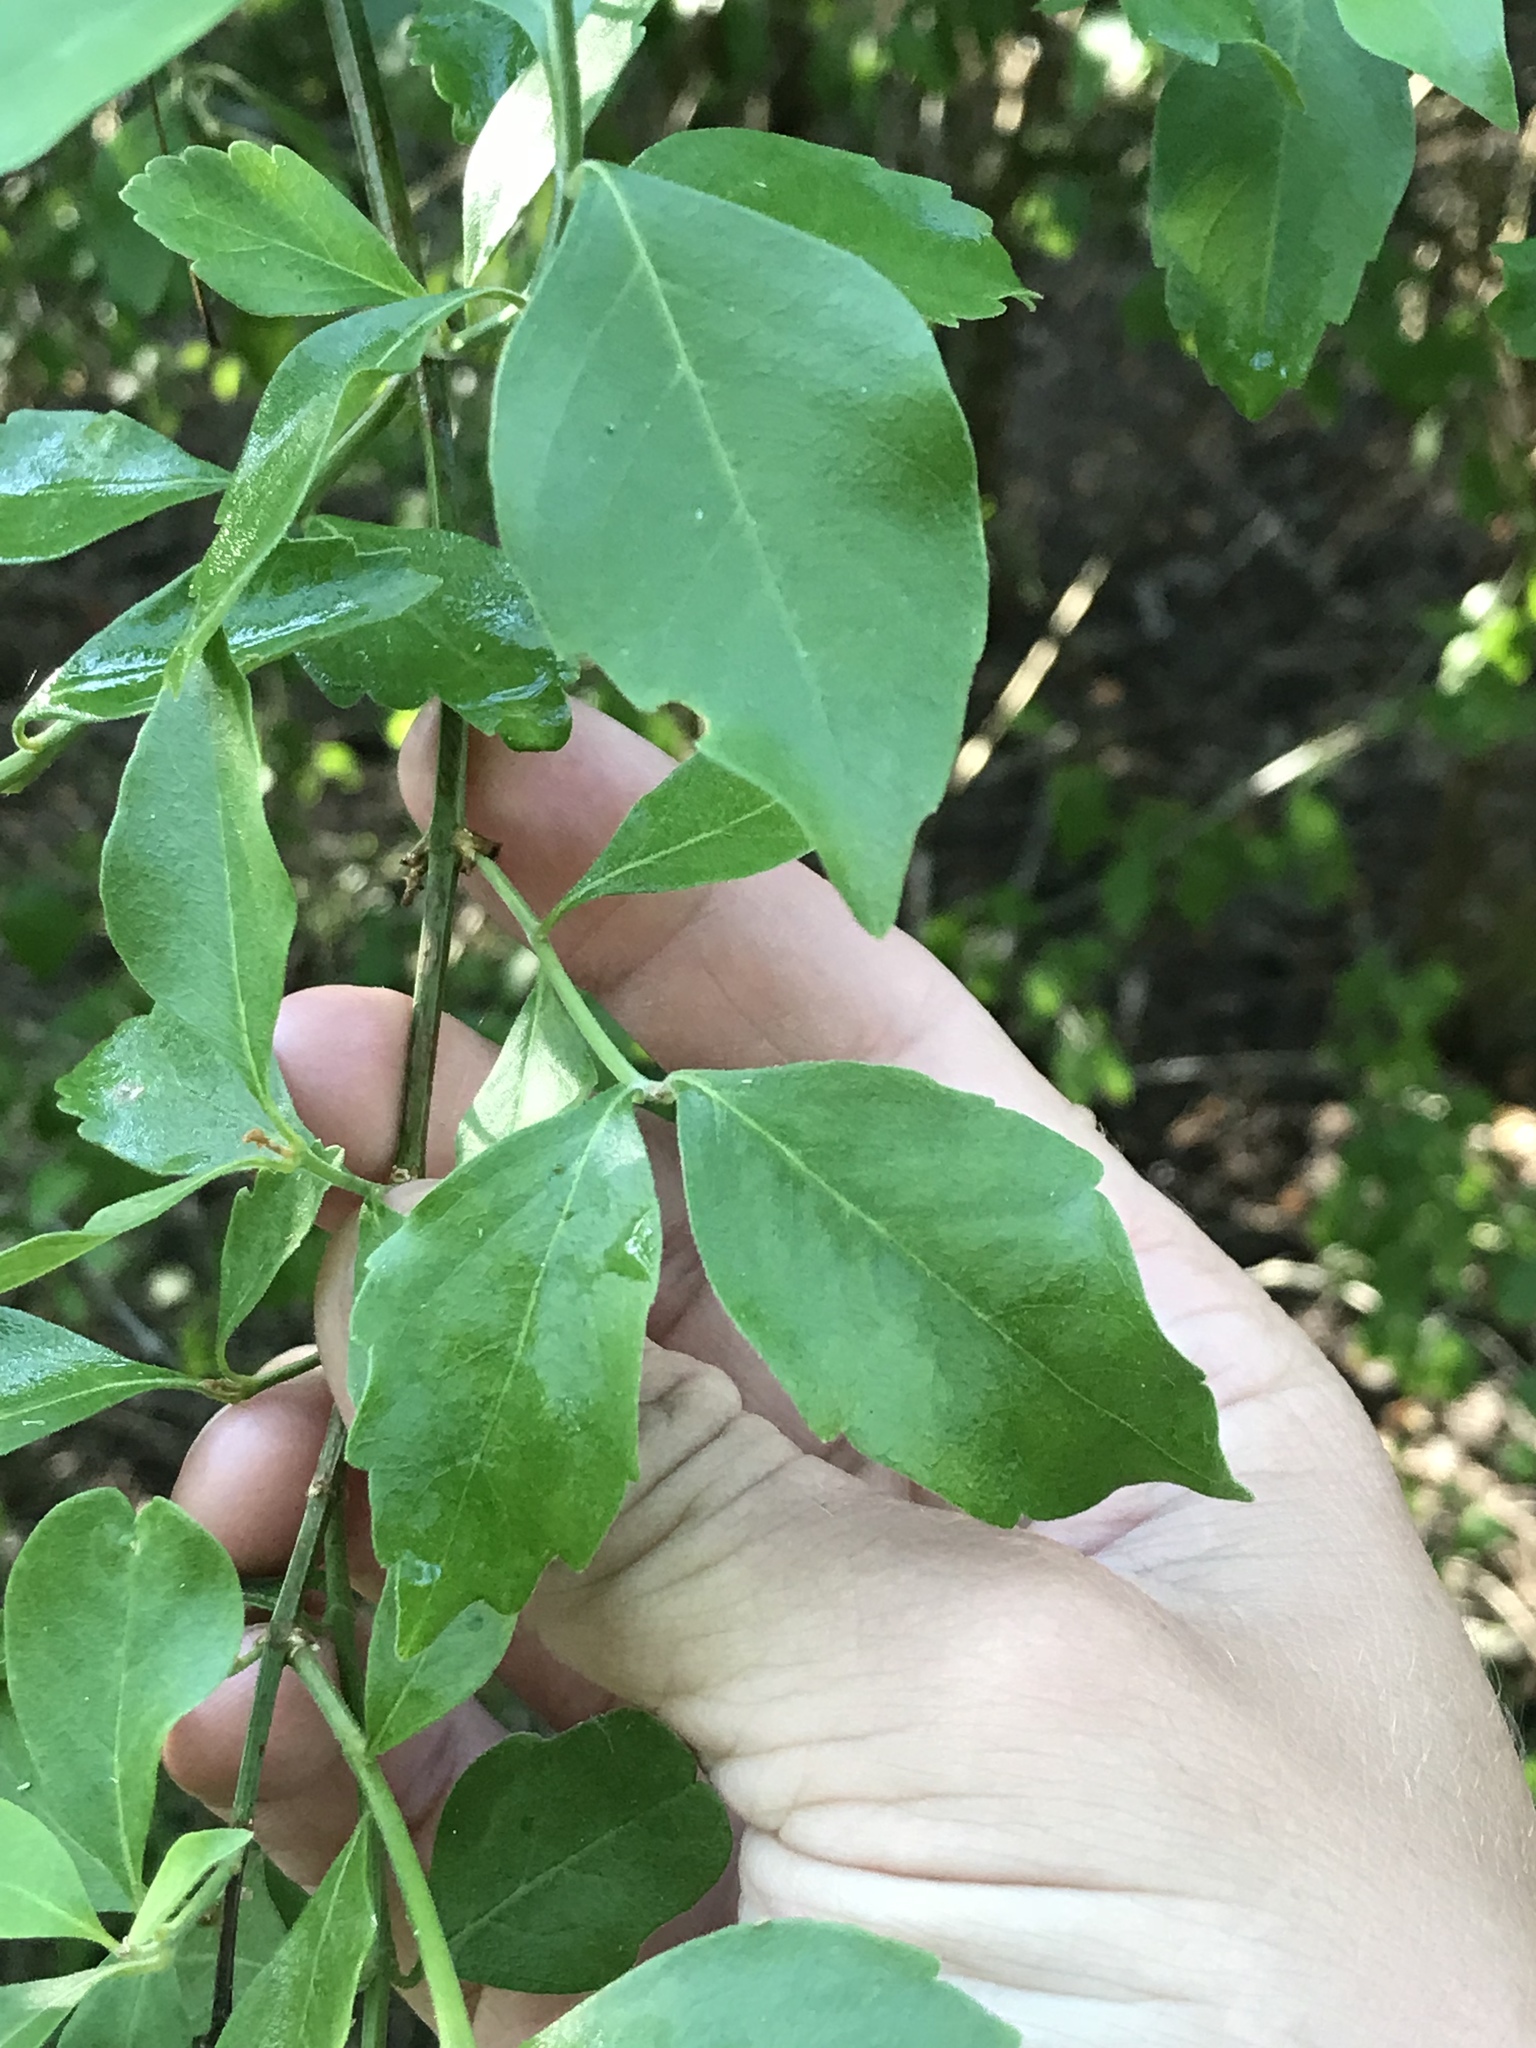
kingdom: Plantae
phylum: Tracheophyta
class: Magnoliopsida
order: Lamiales
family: Verbenaceae
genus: Citharexylum
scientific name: Citharexylum berlandieri
